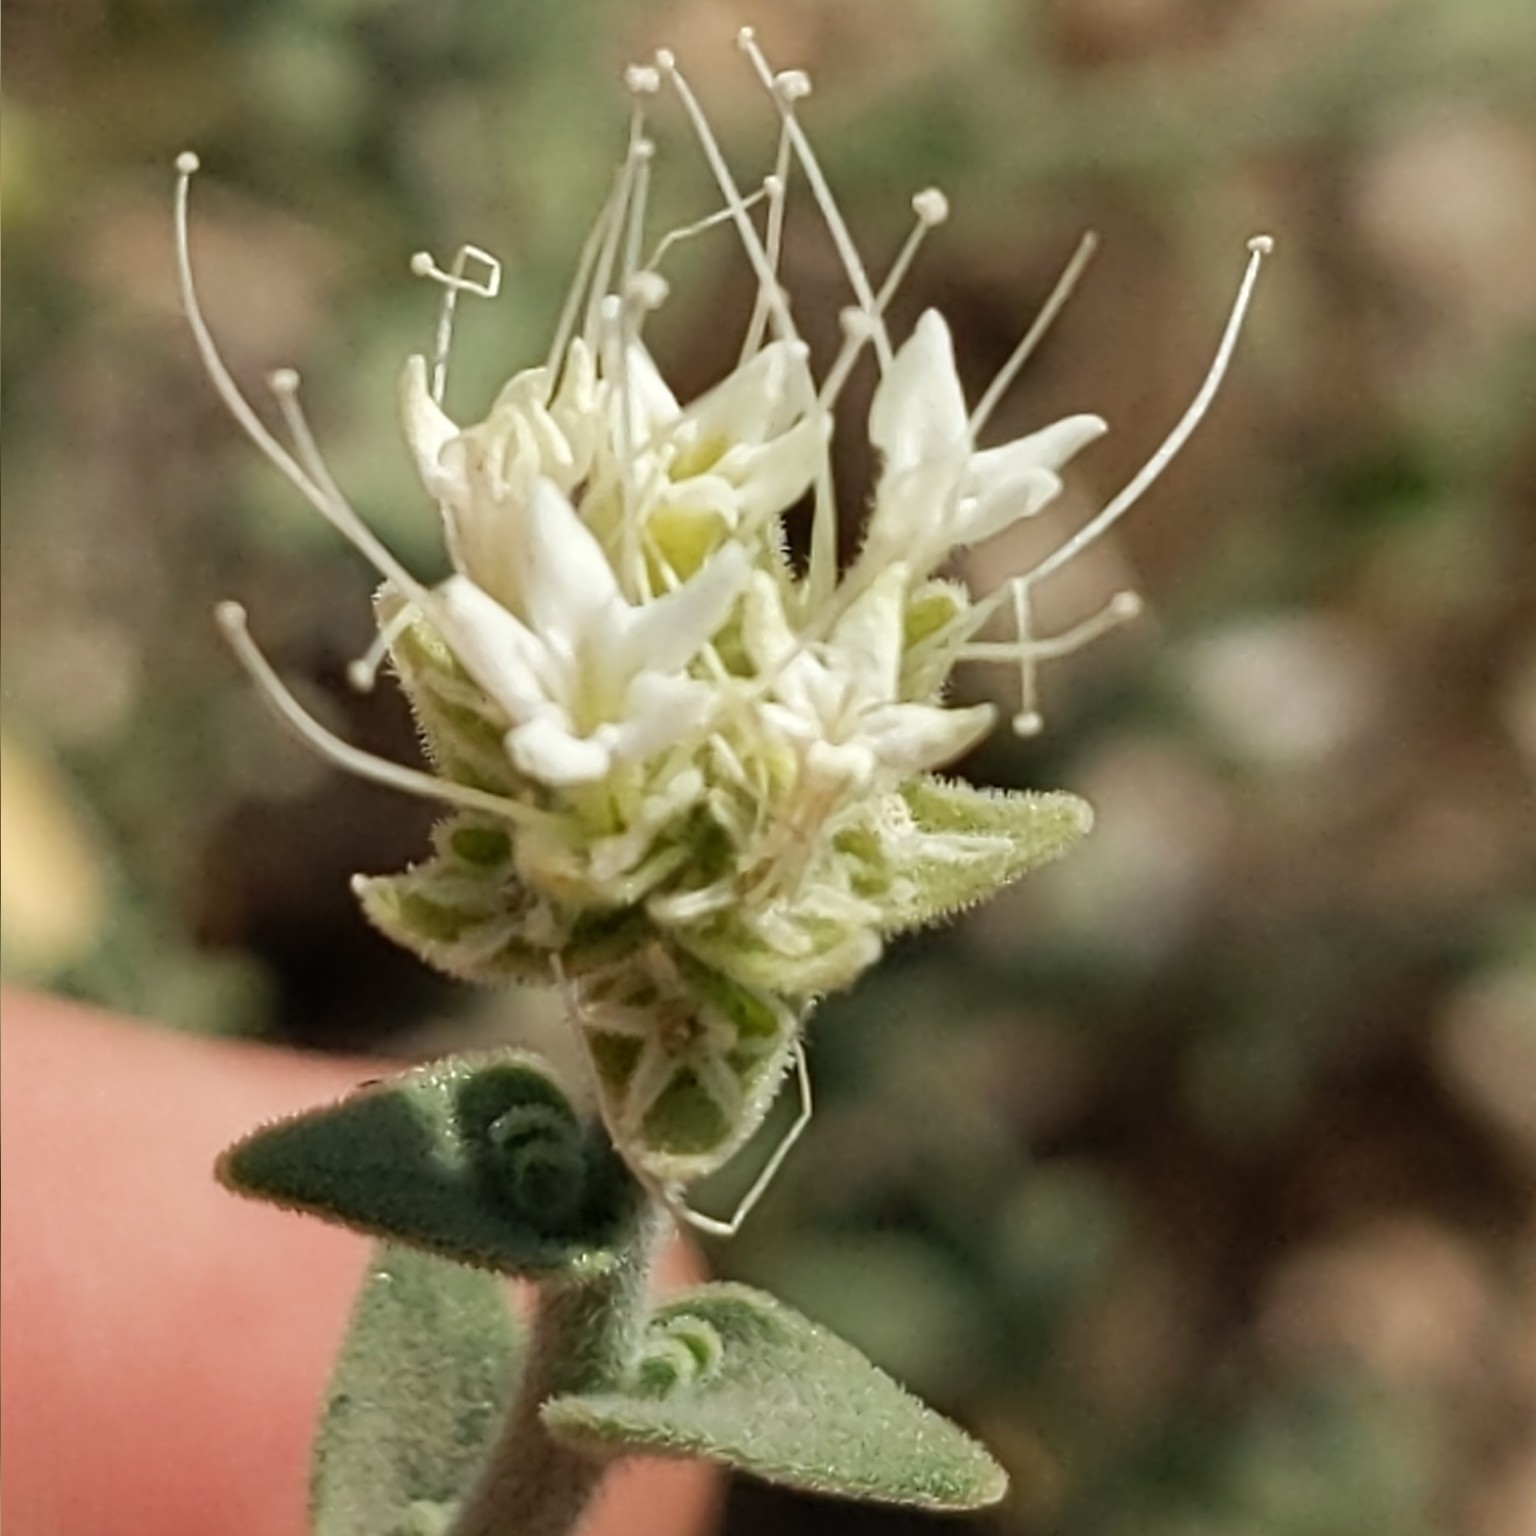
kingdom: Plantae
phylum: Tracheophyta
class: Magnoliopsida
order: Cornales
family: Loasaceae
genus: Petalonyx
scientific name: Petalonyx thurberi
